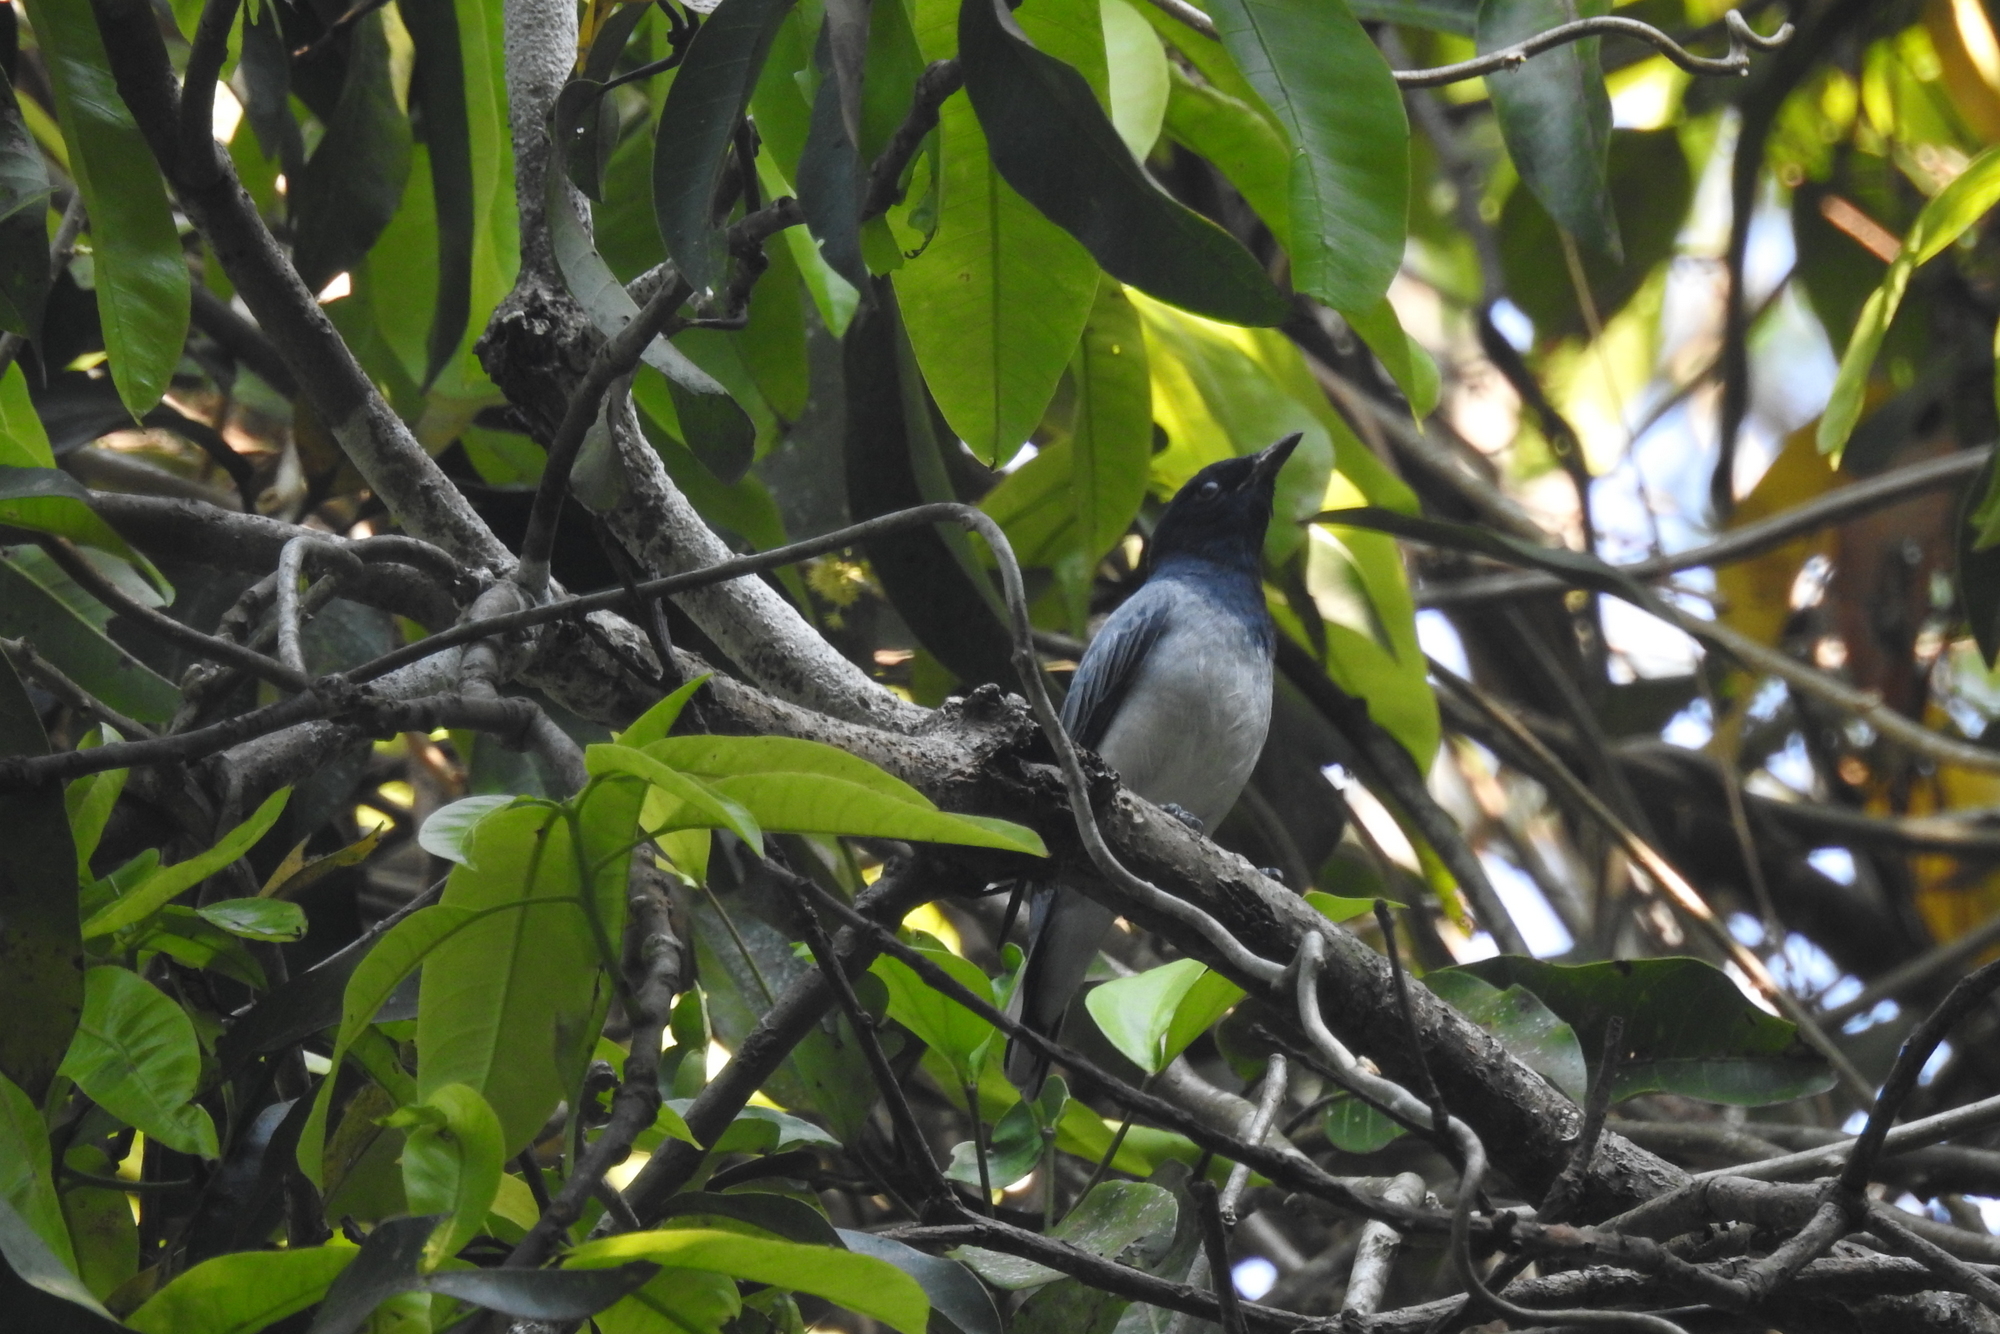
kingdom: Animalia
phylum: Chordata
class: Aves
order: Passeriformes
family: Campephagidae
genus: Coracina
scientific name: Coracina melanoptera
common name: Black-headed cuckooshrike
